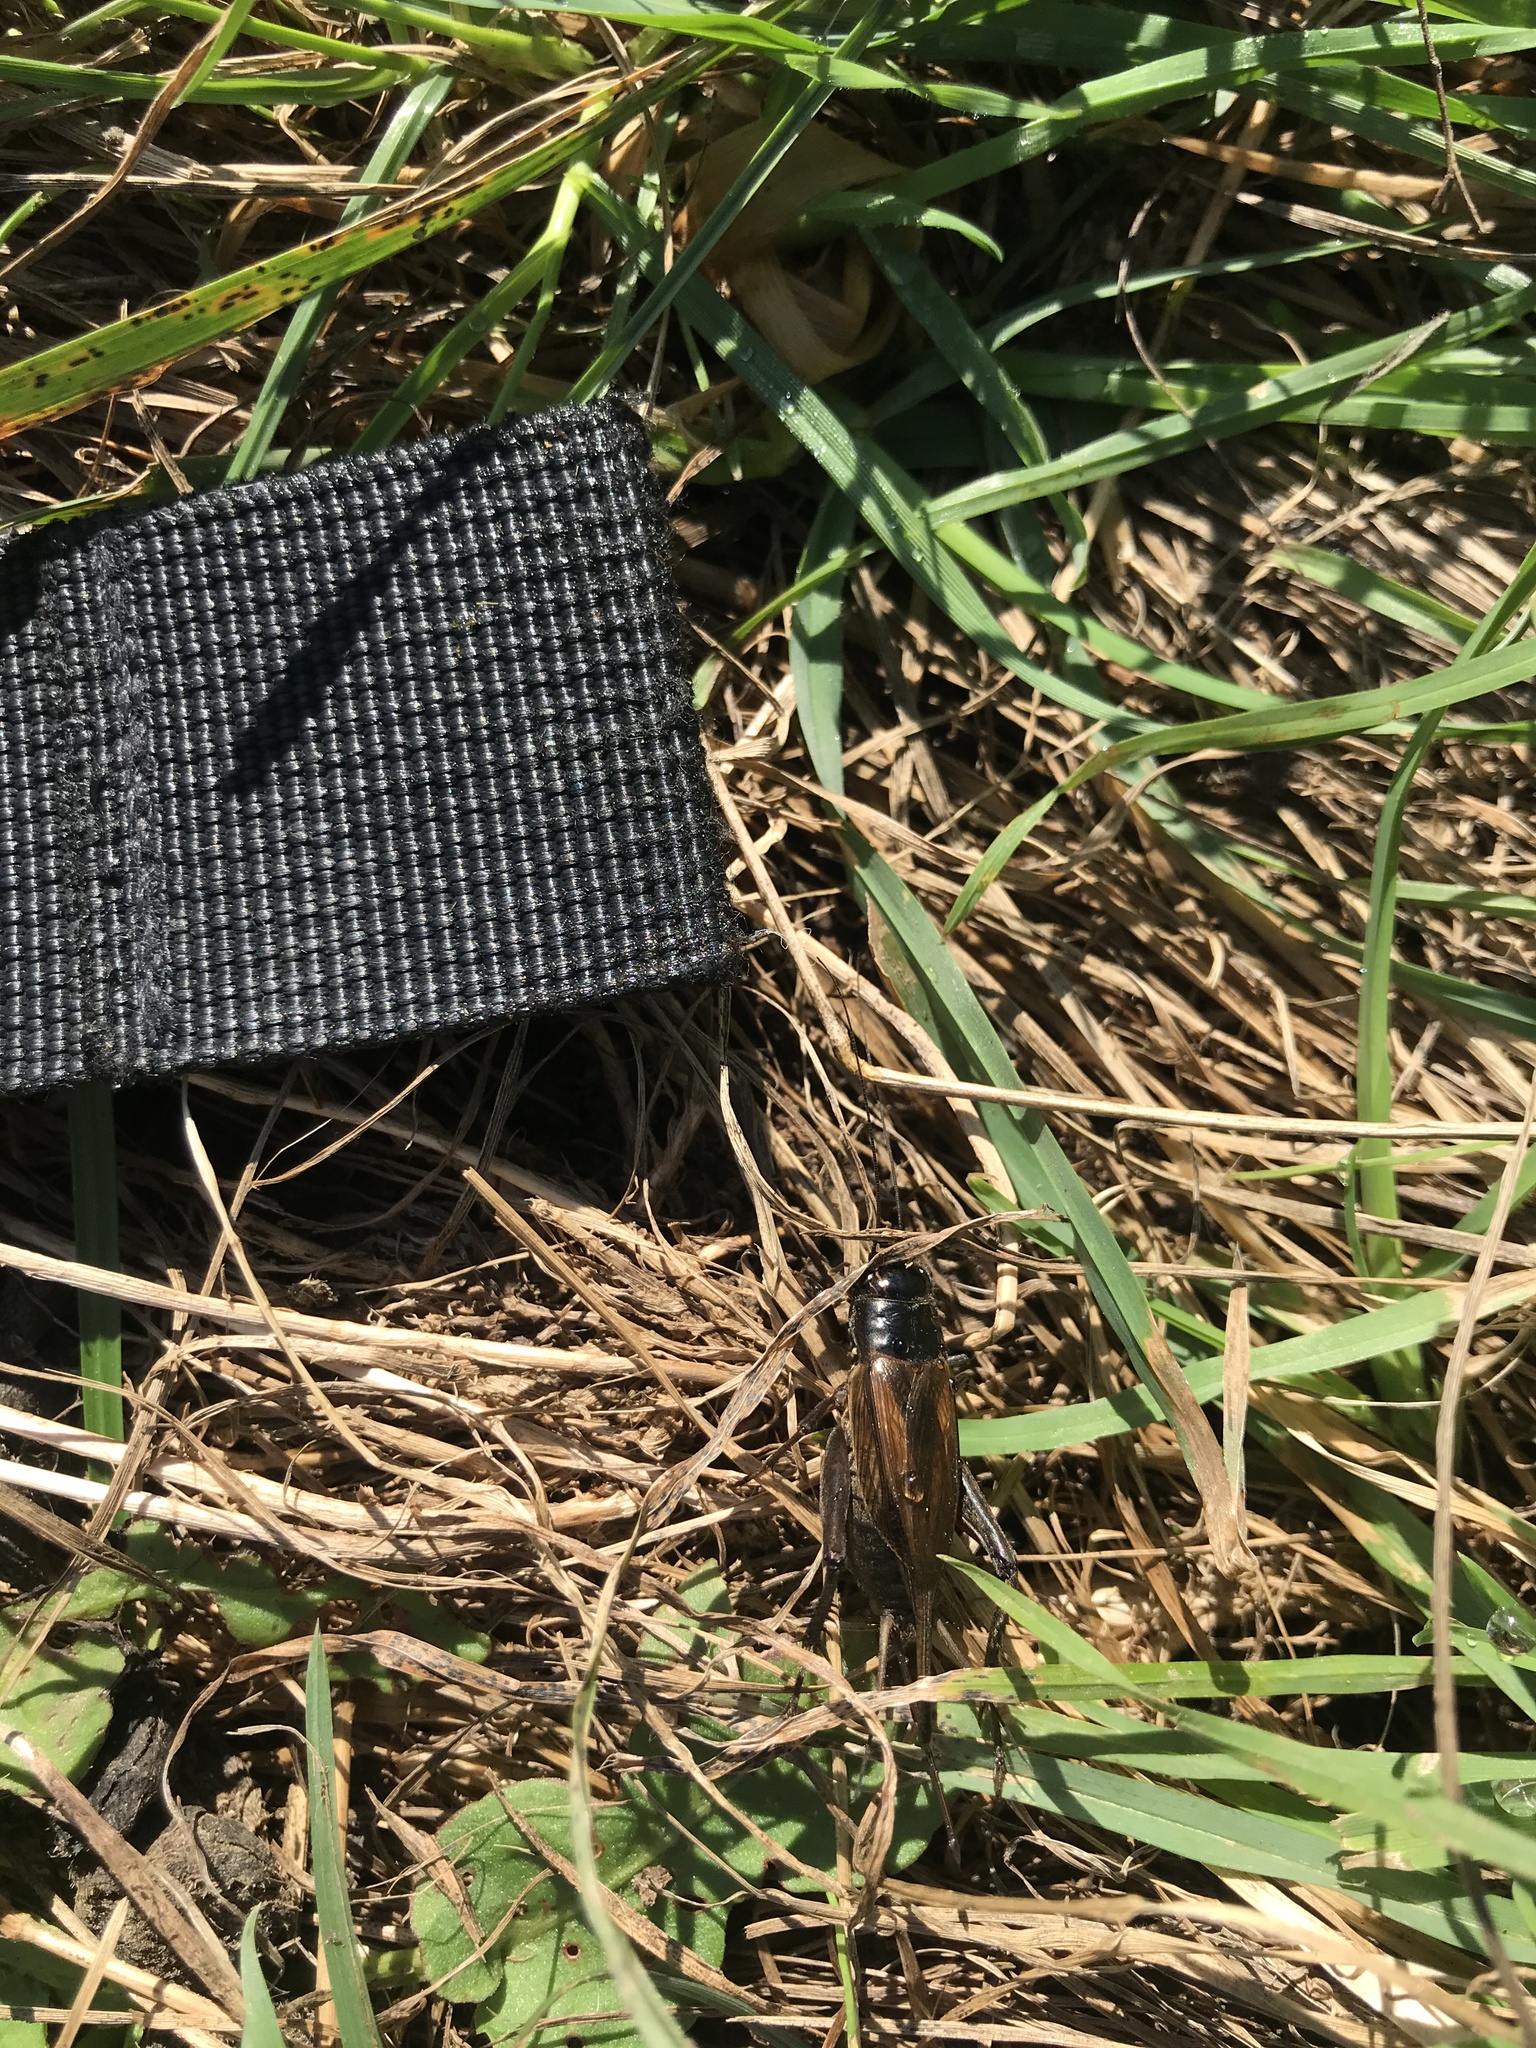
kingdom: Animalia
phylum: Arthropoda
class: Insecta
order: Orthoptera
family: Gryllidae
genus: Teleogryllus
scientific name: Teleogryllus commodus
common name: Black field cricket
